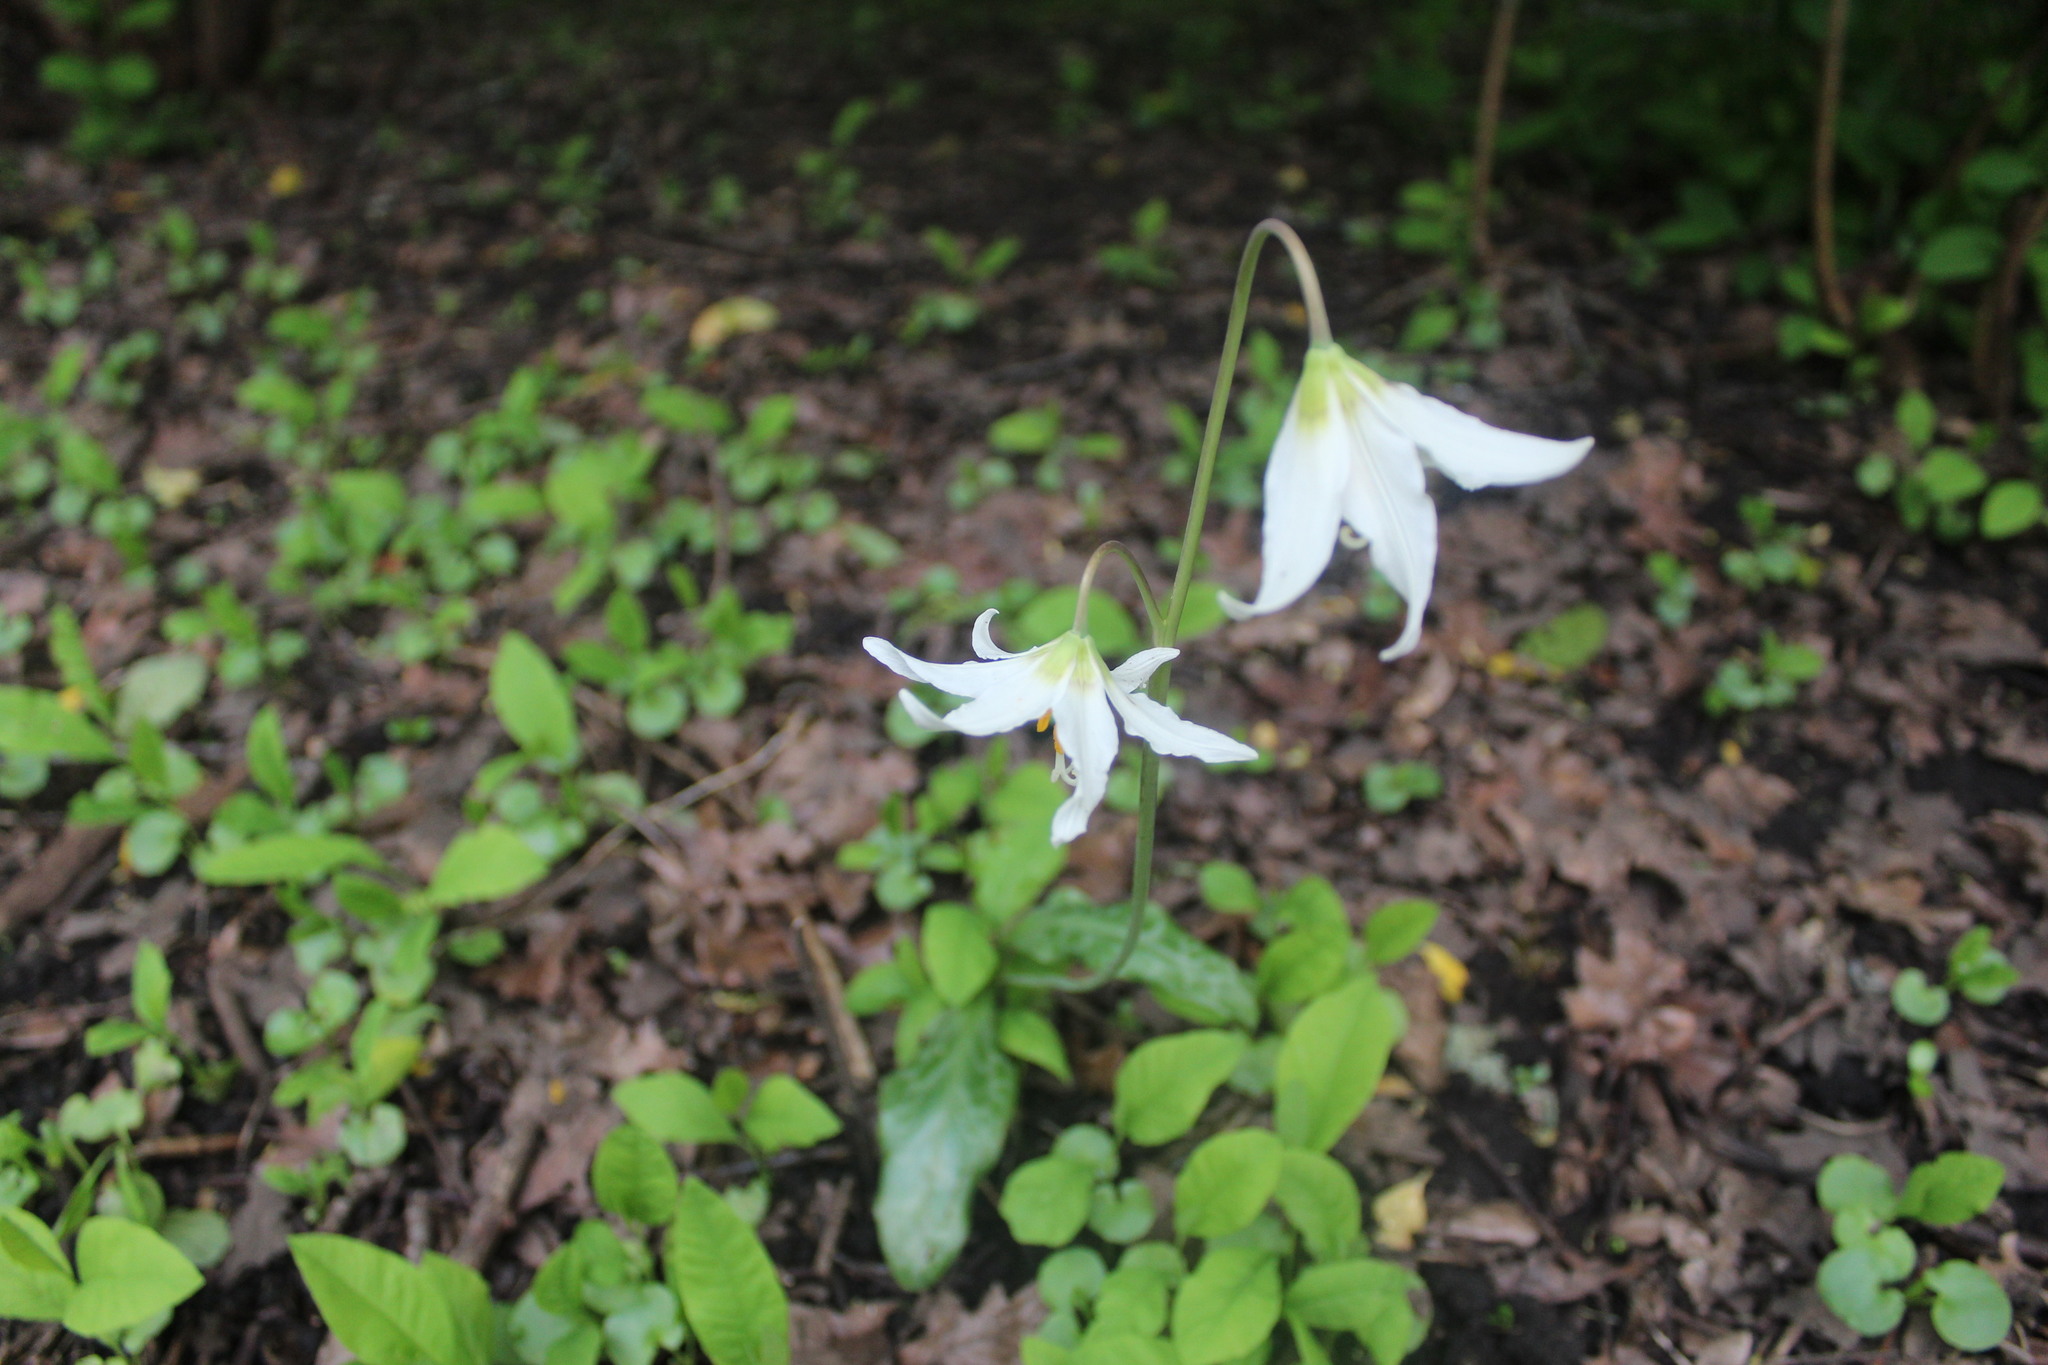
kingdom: Plantae
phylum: Tracheophyta
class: Liliopsida
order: Liliales
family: Liliaceae
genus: Erythronium
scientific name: Erythronium oregonum
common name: Giant adder's-tongue
